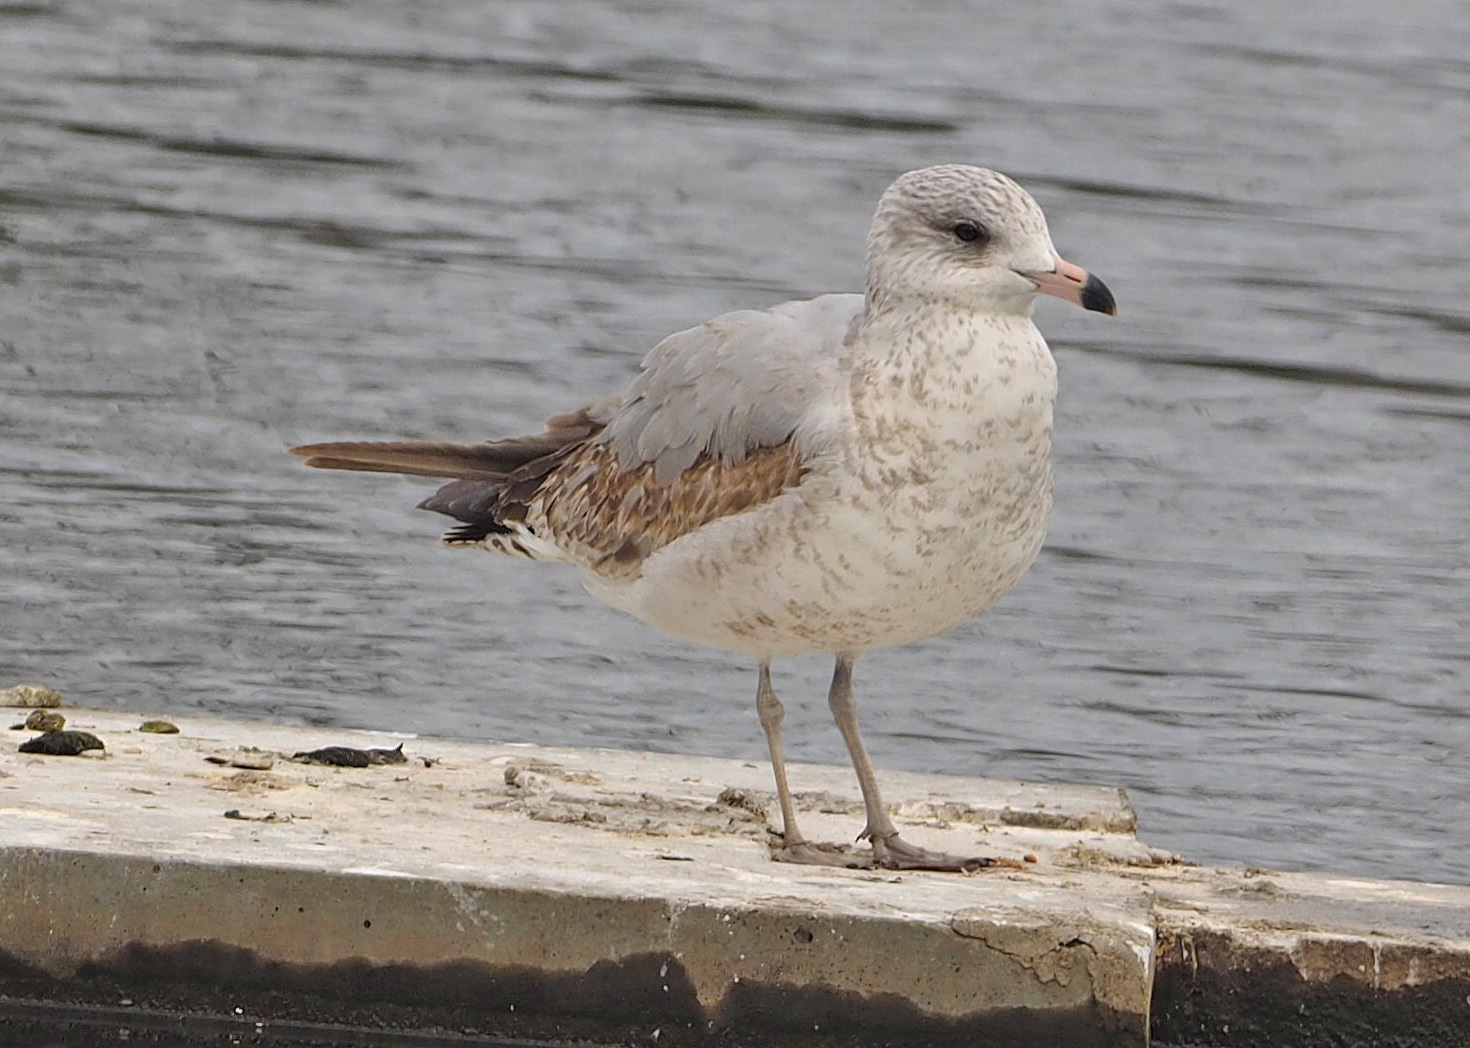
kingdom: Animalia
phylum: Chordata
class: Aves
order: Charadriiformes
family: Laridae
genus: Larus
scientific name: Larus delawarensis
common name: Ring-billed gull
